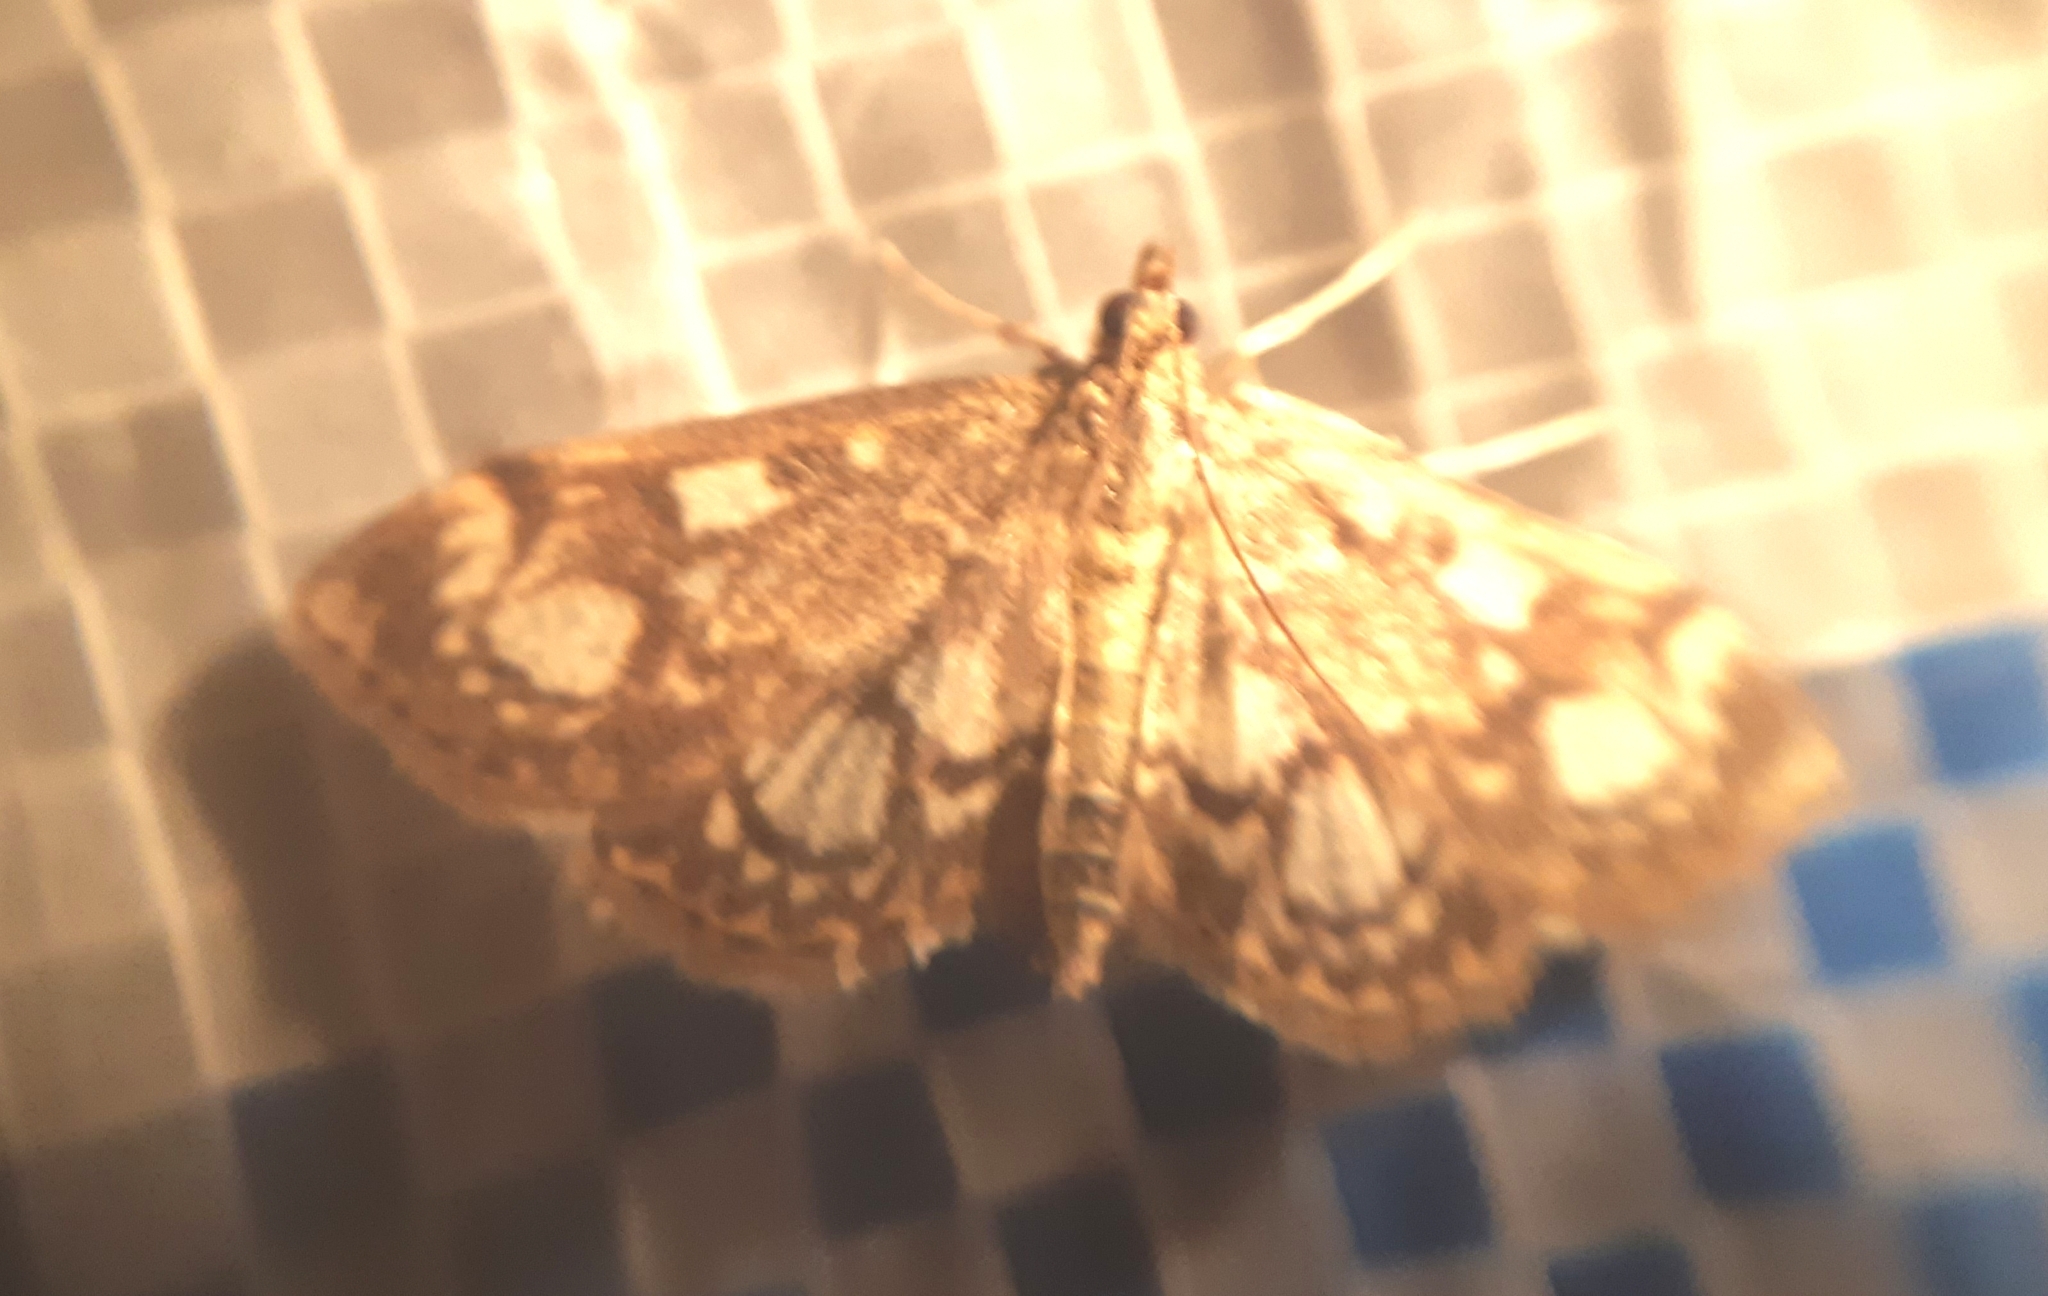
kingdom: Animalia
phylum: Arthropoda
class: Insecta
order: Lepidoptera
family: Crambidae
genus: Anania
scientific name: Anania coronata
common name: Elder pearl
